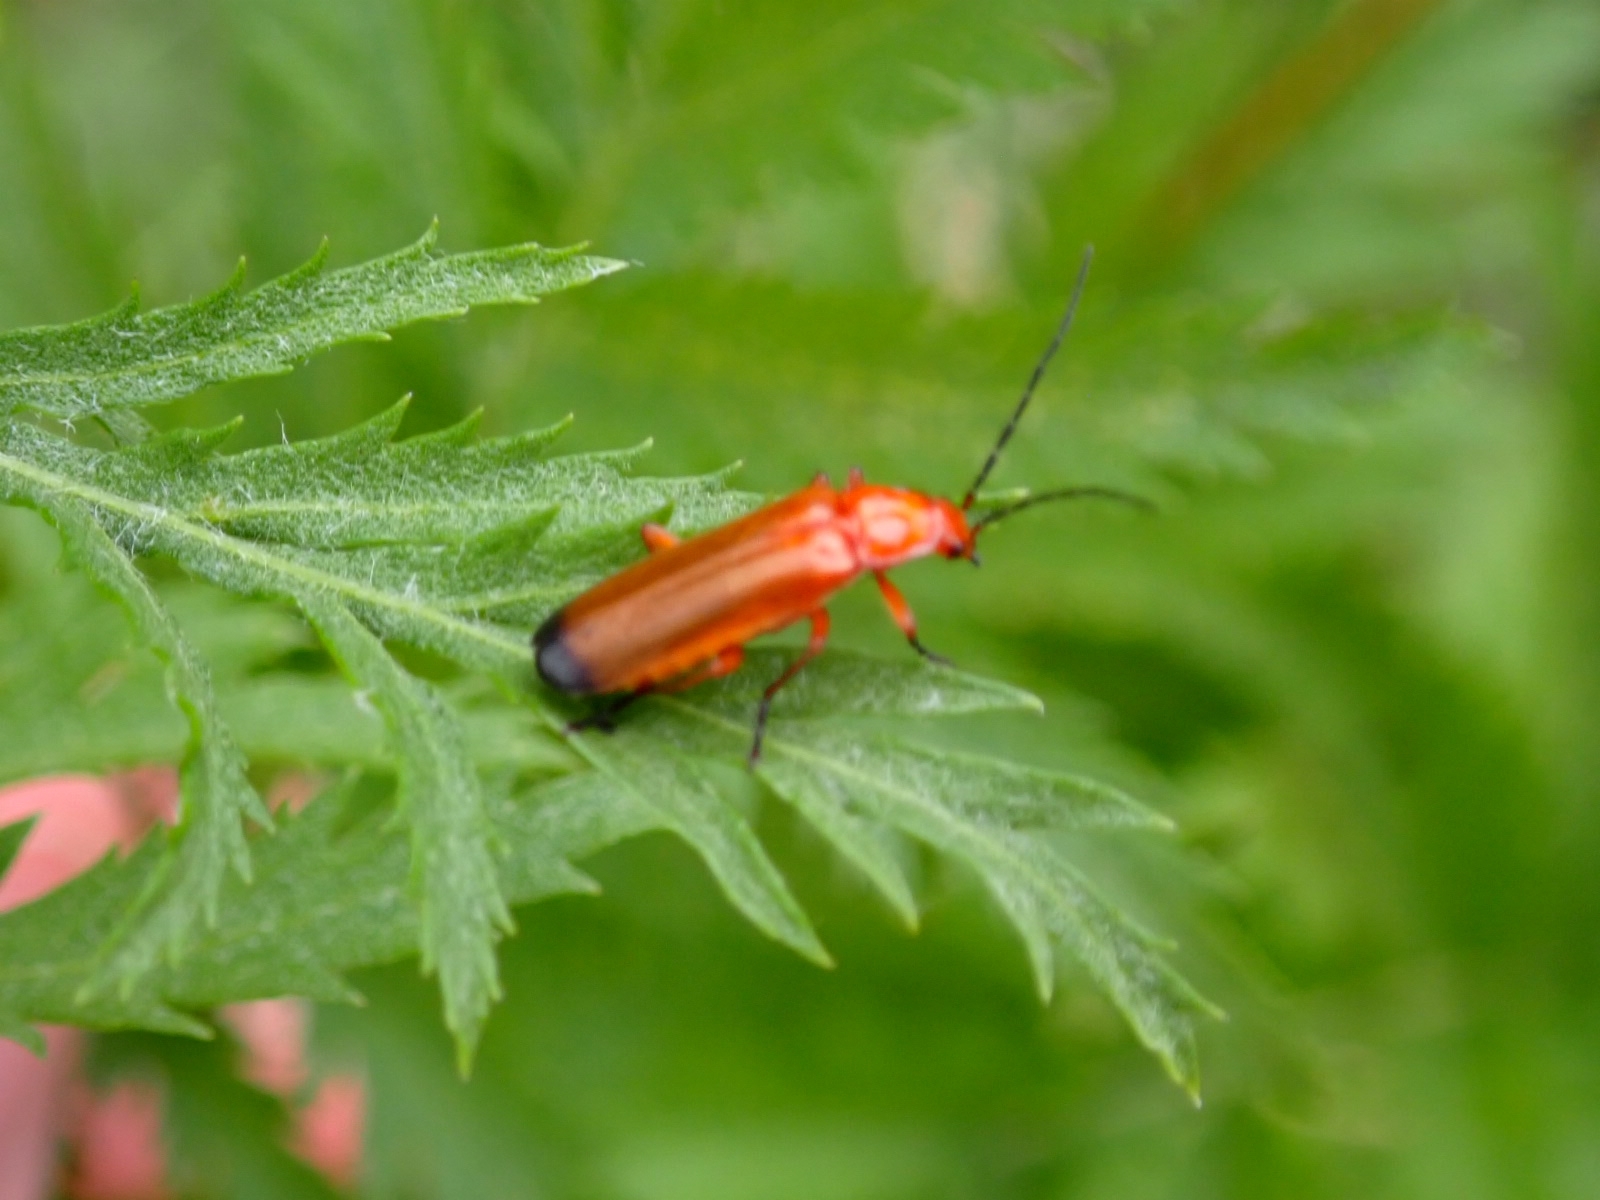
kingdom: Animalia
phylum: Arthropoda
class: Insecta
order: Coleoptera
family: Cantharidae
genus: Rhagonycha
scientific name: Rhagonycha fulva
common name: Common red soldier beetle
